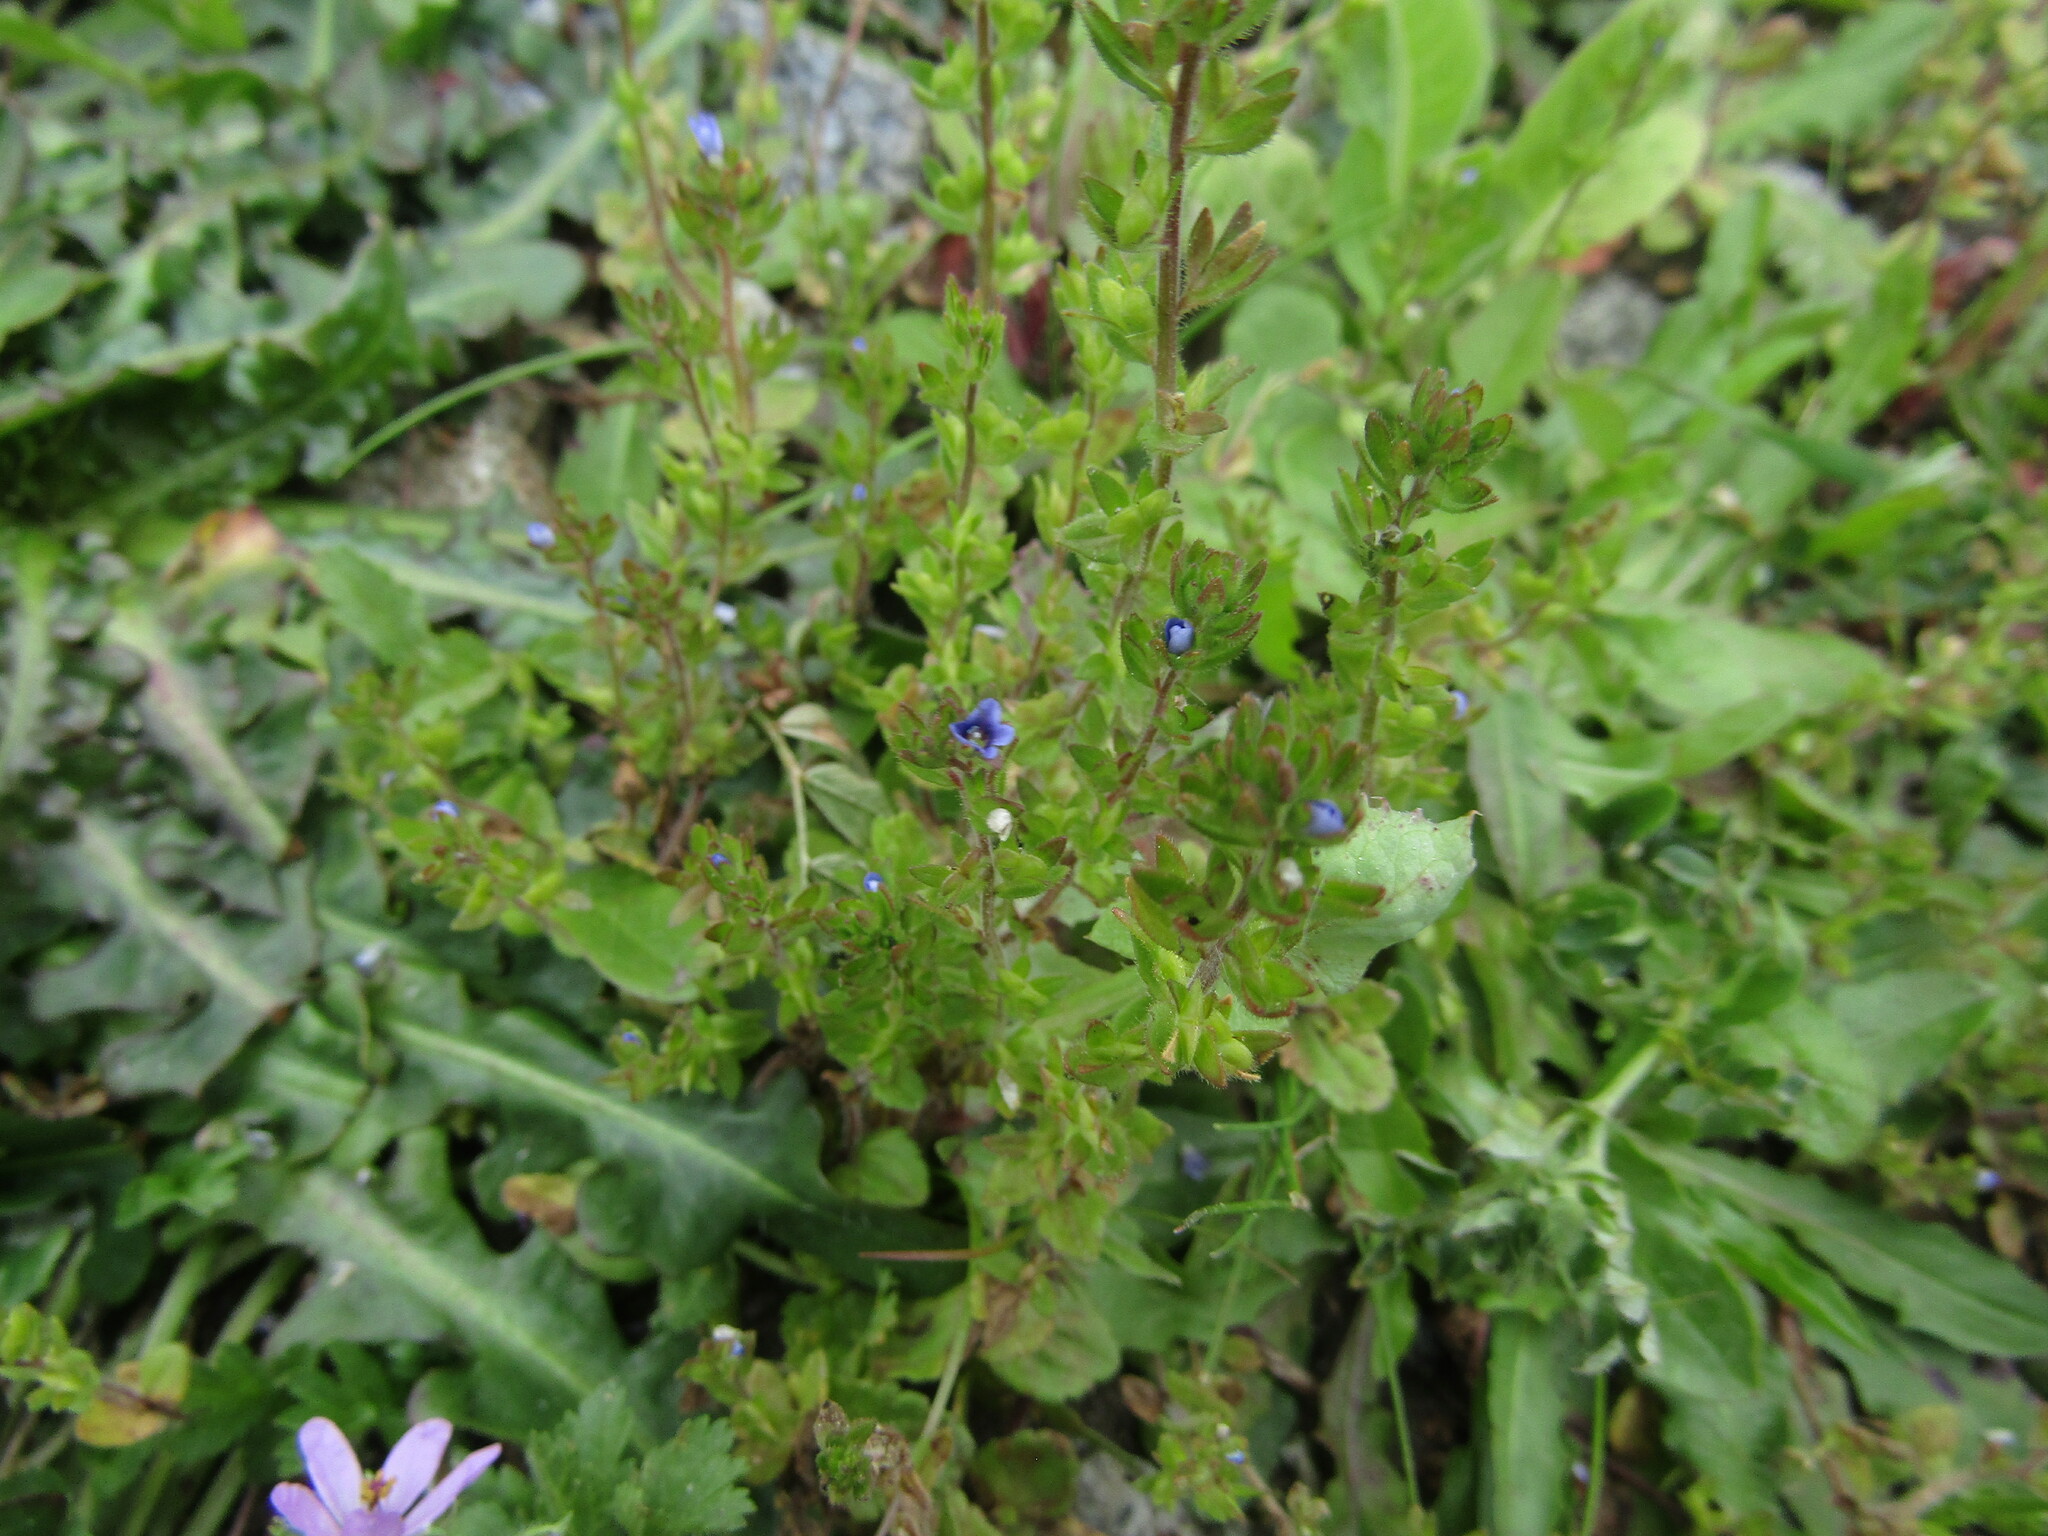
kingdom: Plantae
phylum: Tracheophyta
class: Magnoliopsida
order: Lamiales
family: Plantaginaceae
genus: Veronica
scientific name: Veronica arvensis
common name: Corn speedwell
